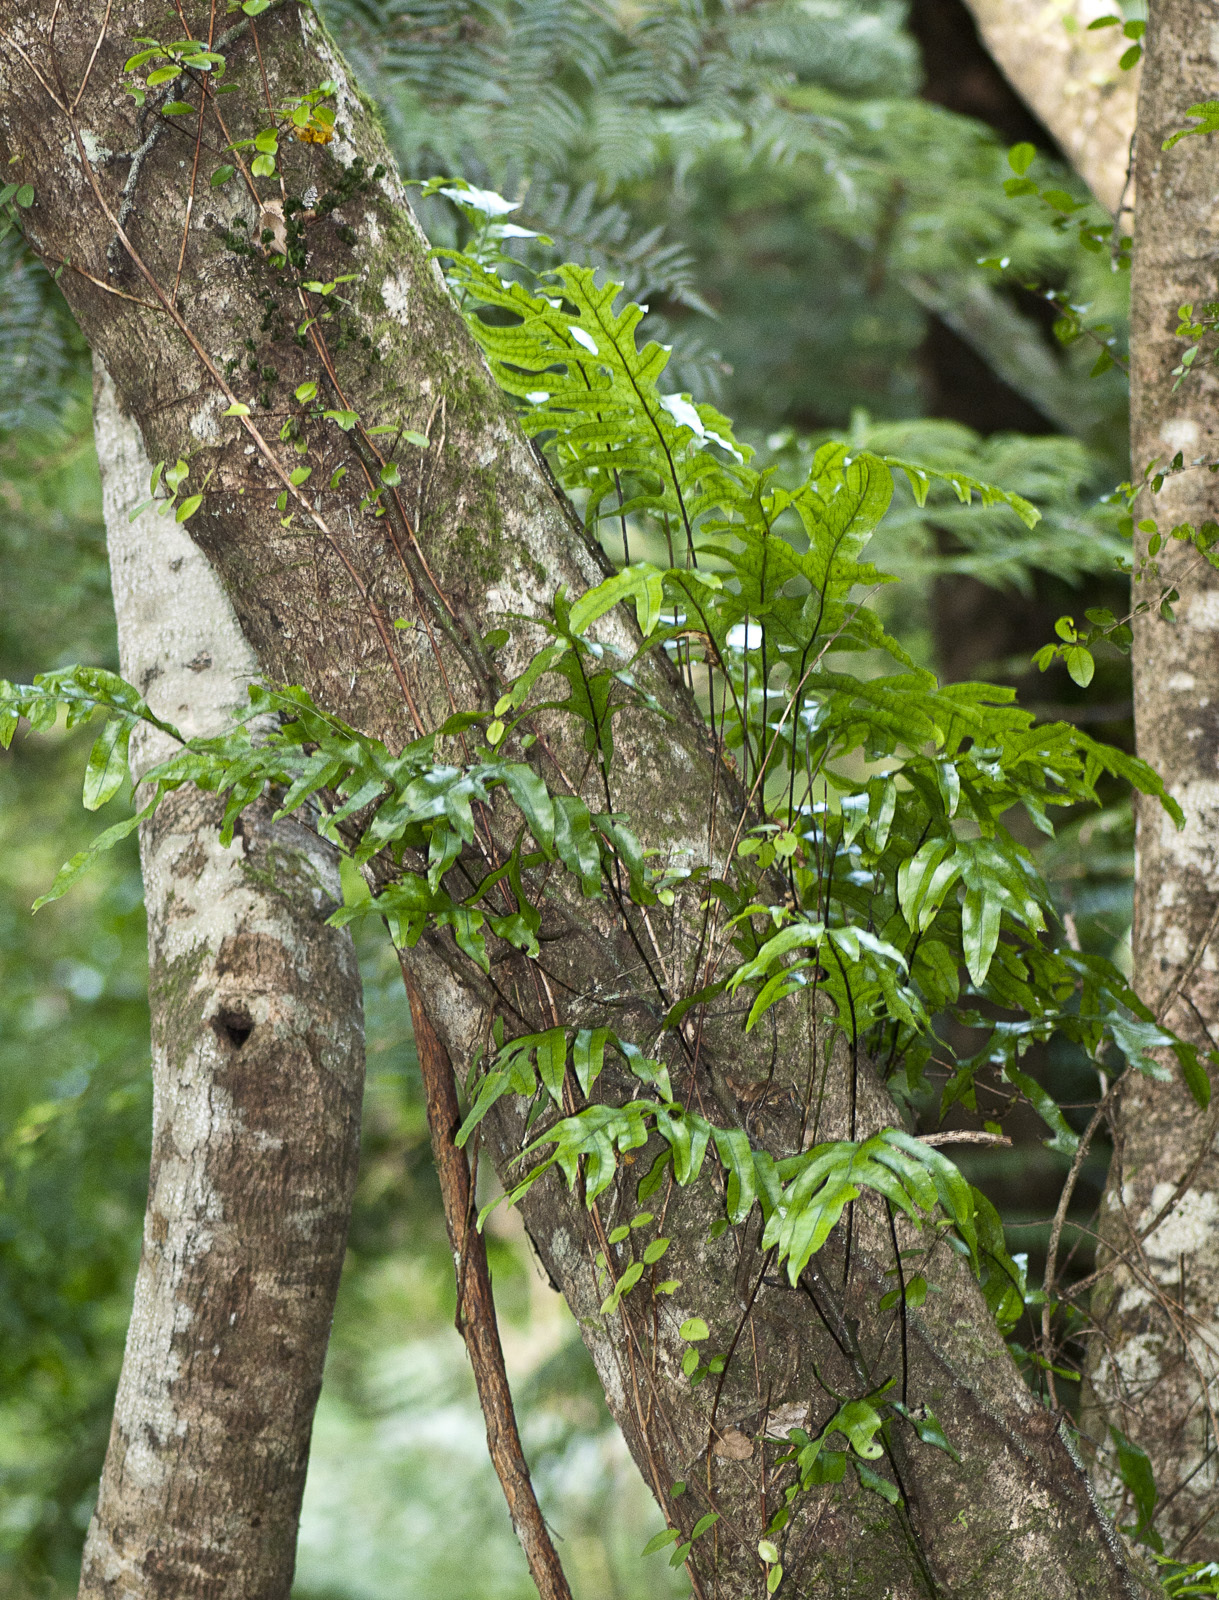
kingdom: Plantae
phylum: Tracheophyta
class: Polypodiopsida
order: Polypodiales
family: Polypodiaceae
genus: Lecanopteris
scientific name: Lecanopteris pustulata
